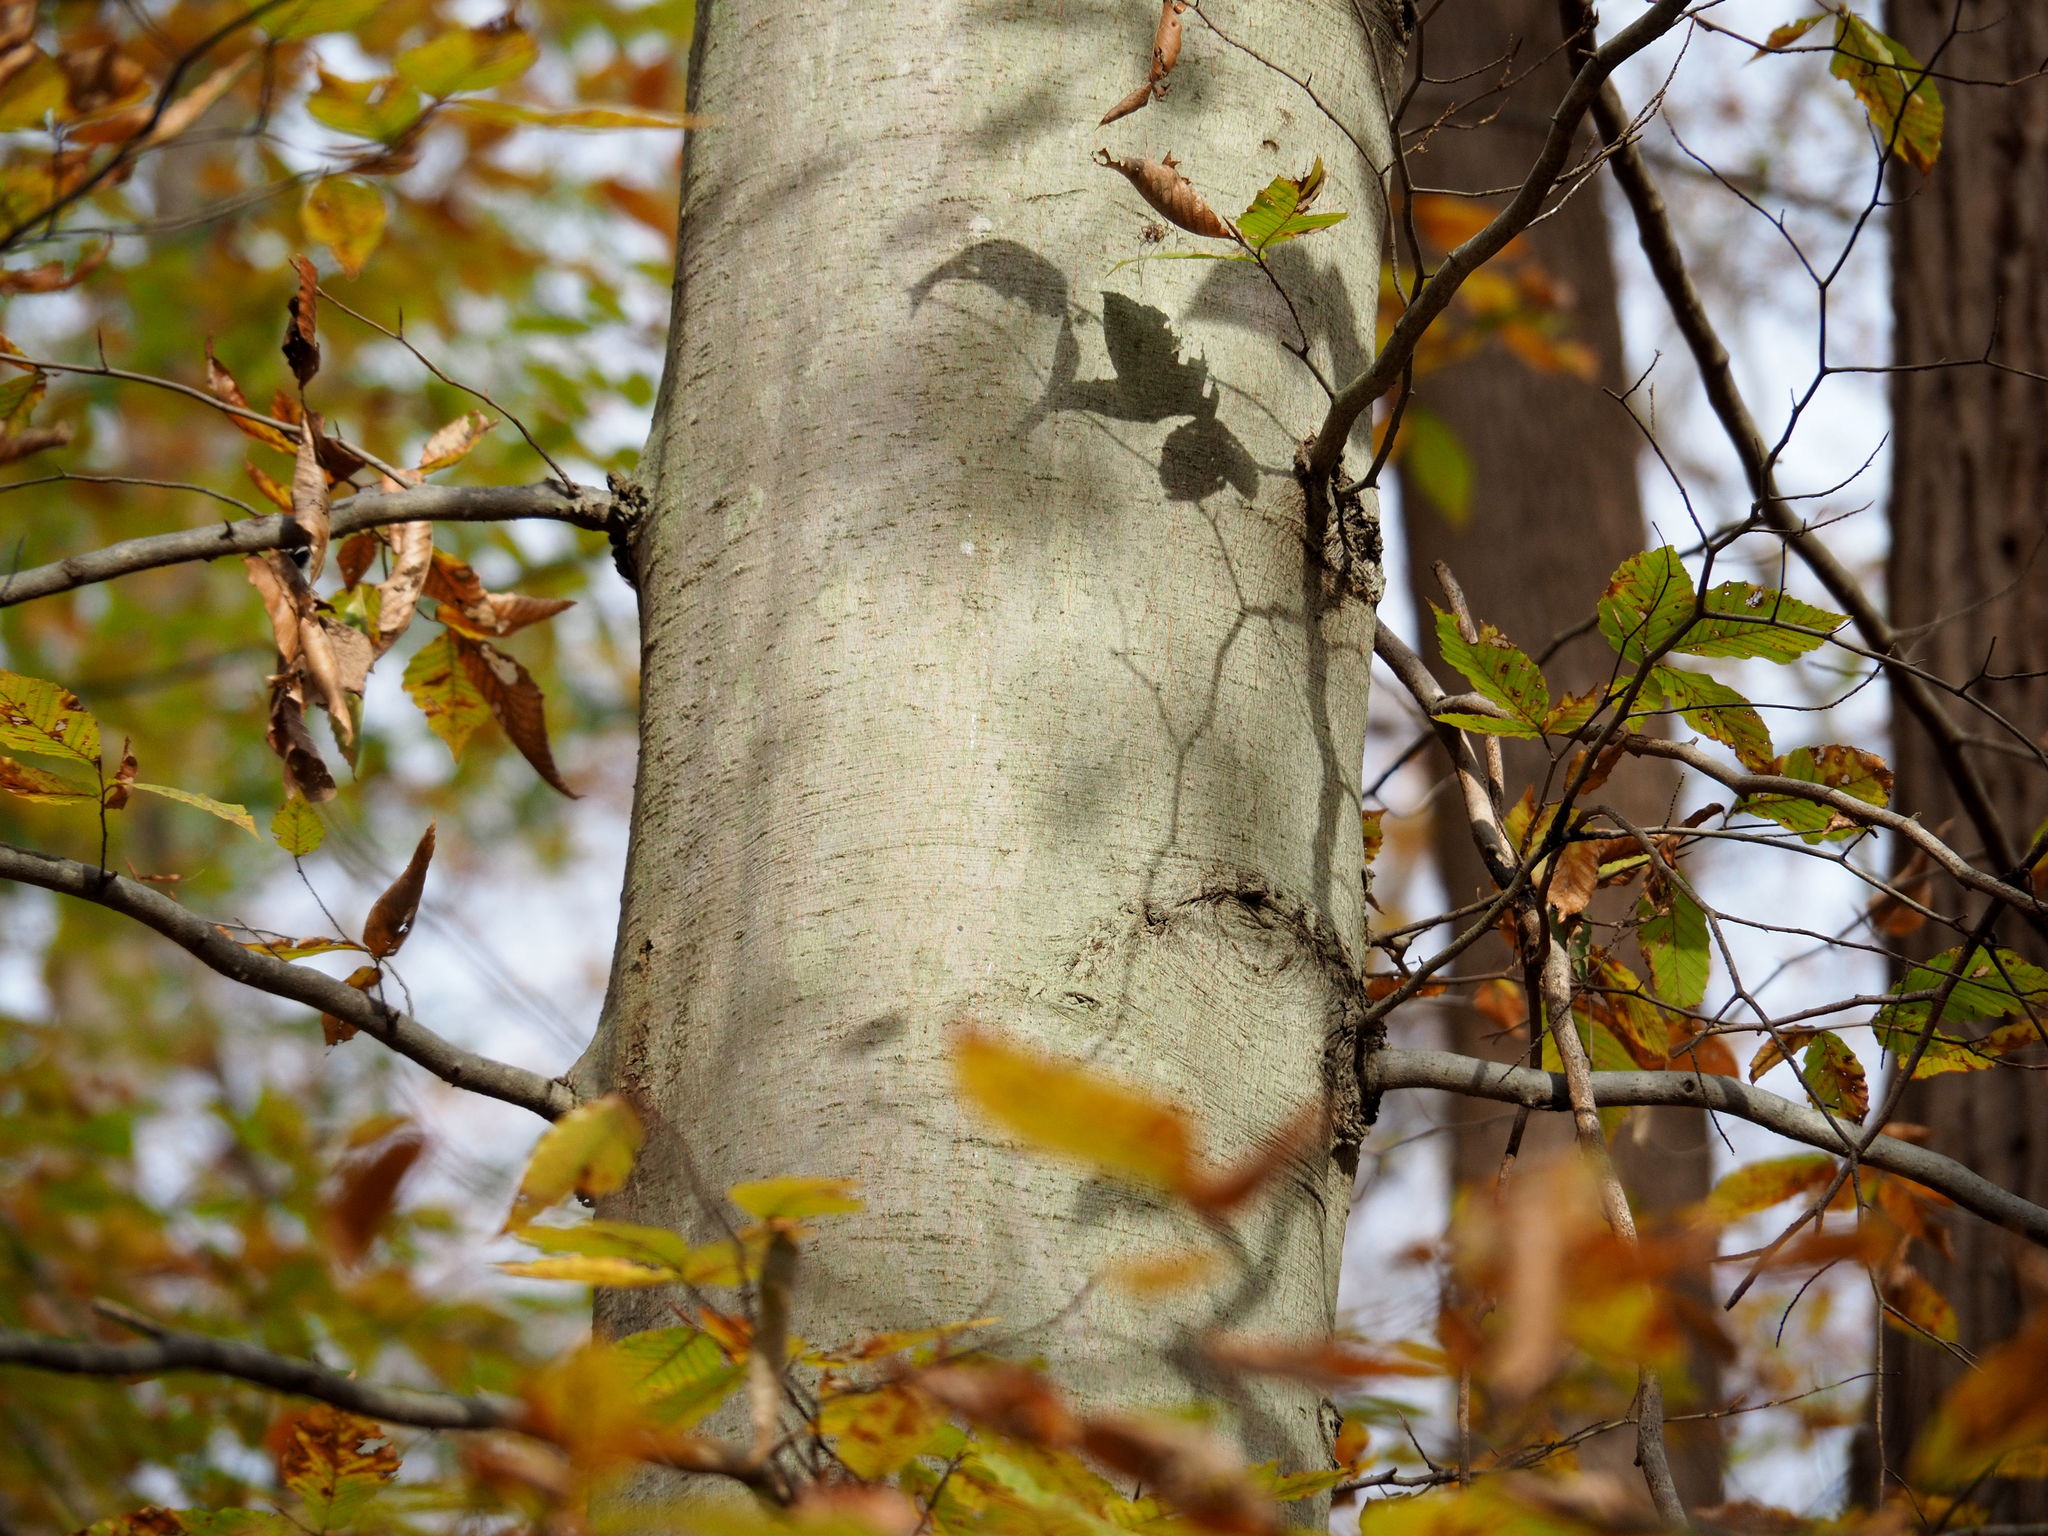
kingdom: Plantae
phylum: Tracheophyta
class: Magnoliopsida
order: Fagales
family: Fagaceae
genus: Fagus
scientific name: Fagus grandifolia
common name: American beech
